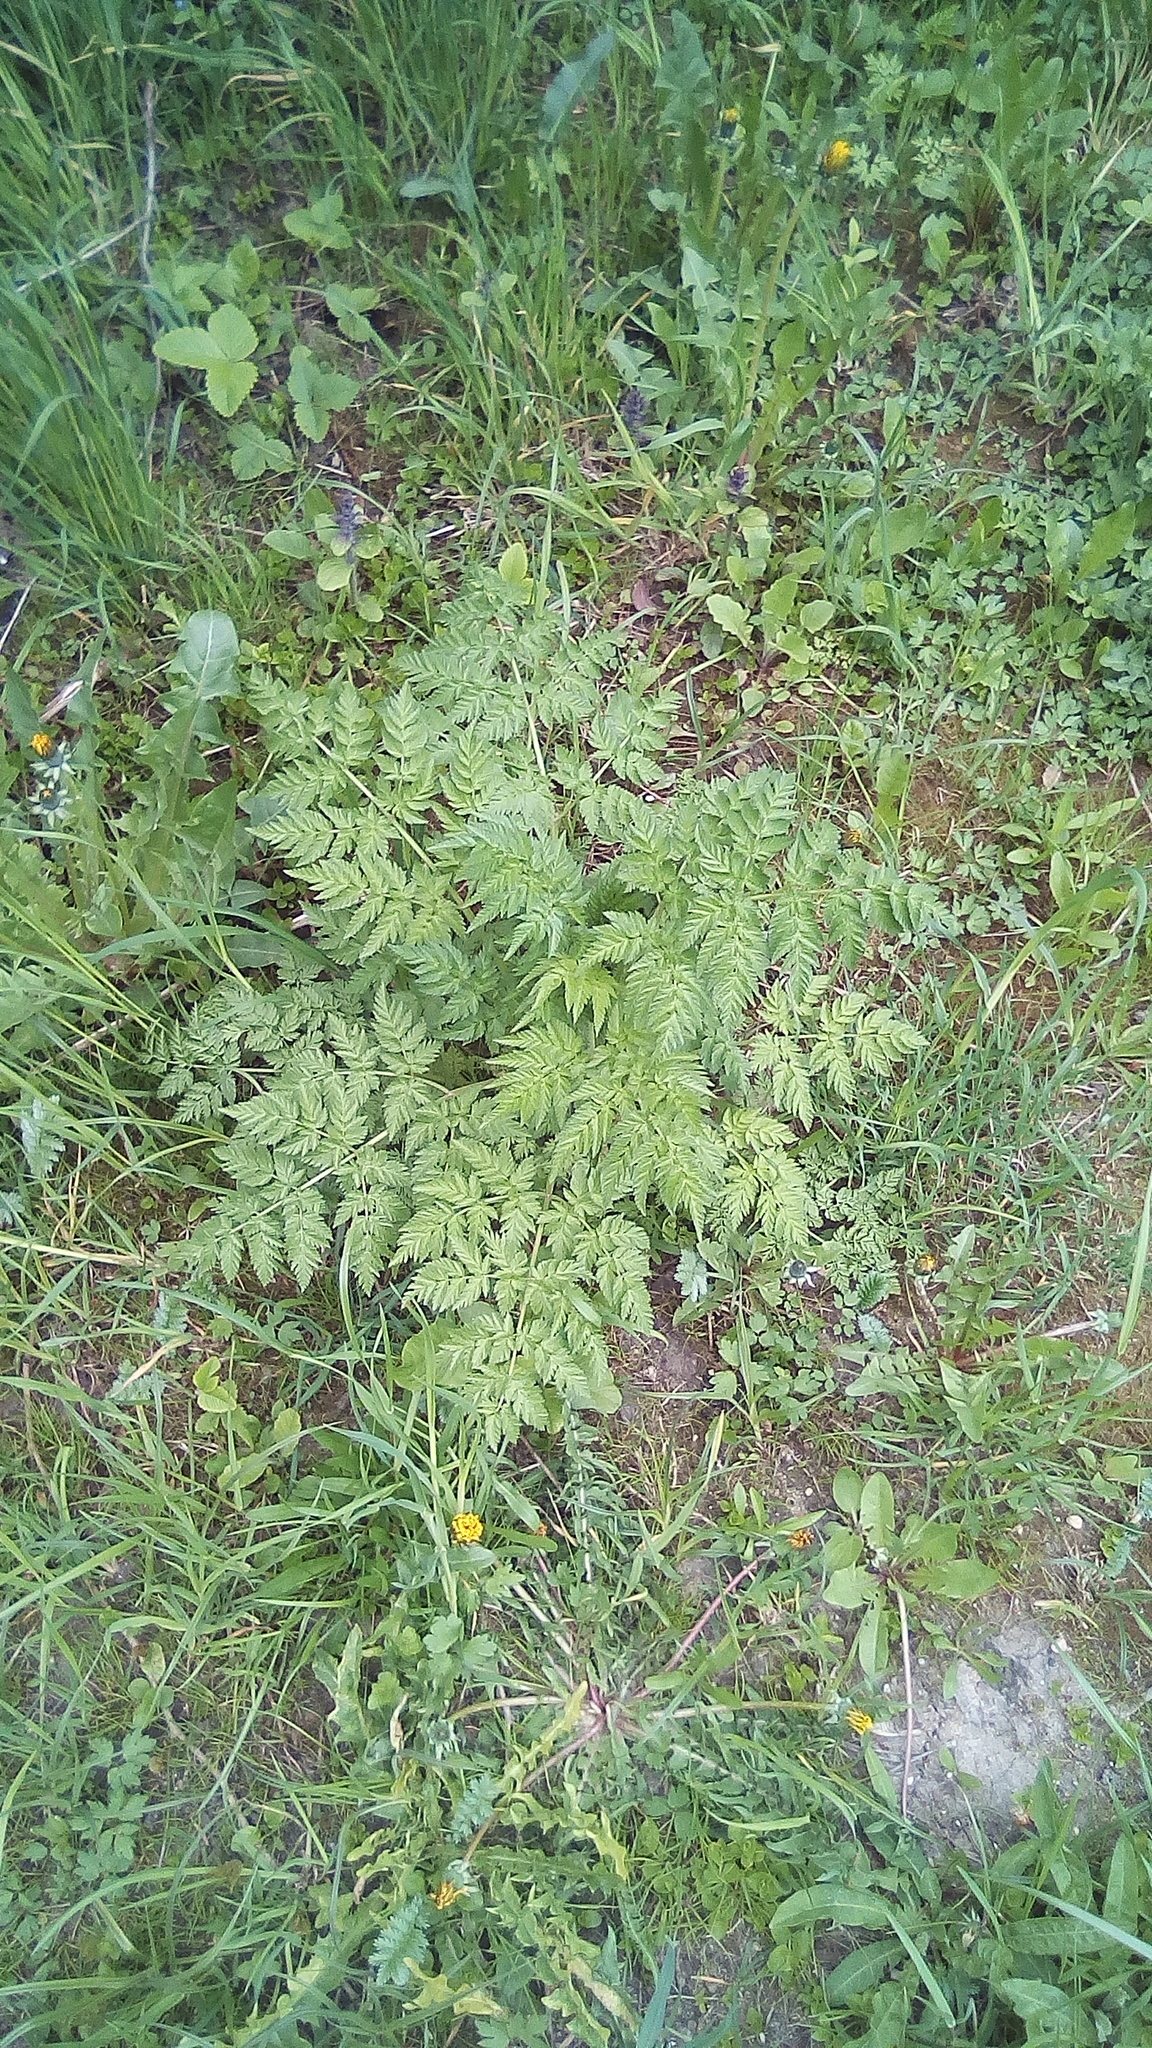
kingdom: Plantae
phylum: Tracheophyta
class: Magnoliopsida
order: Apiales
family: Apiaceae
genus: Anthriscus
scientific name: Anthriscus sylvestris
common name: Cow parsley
